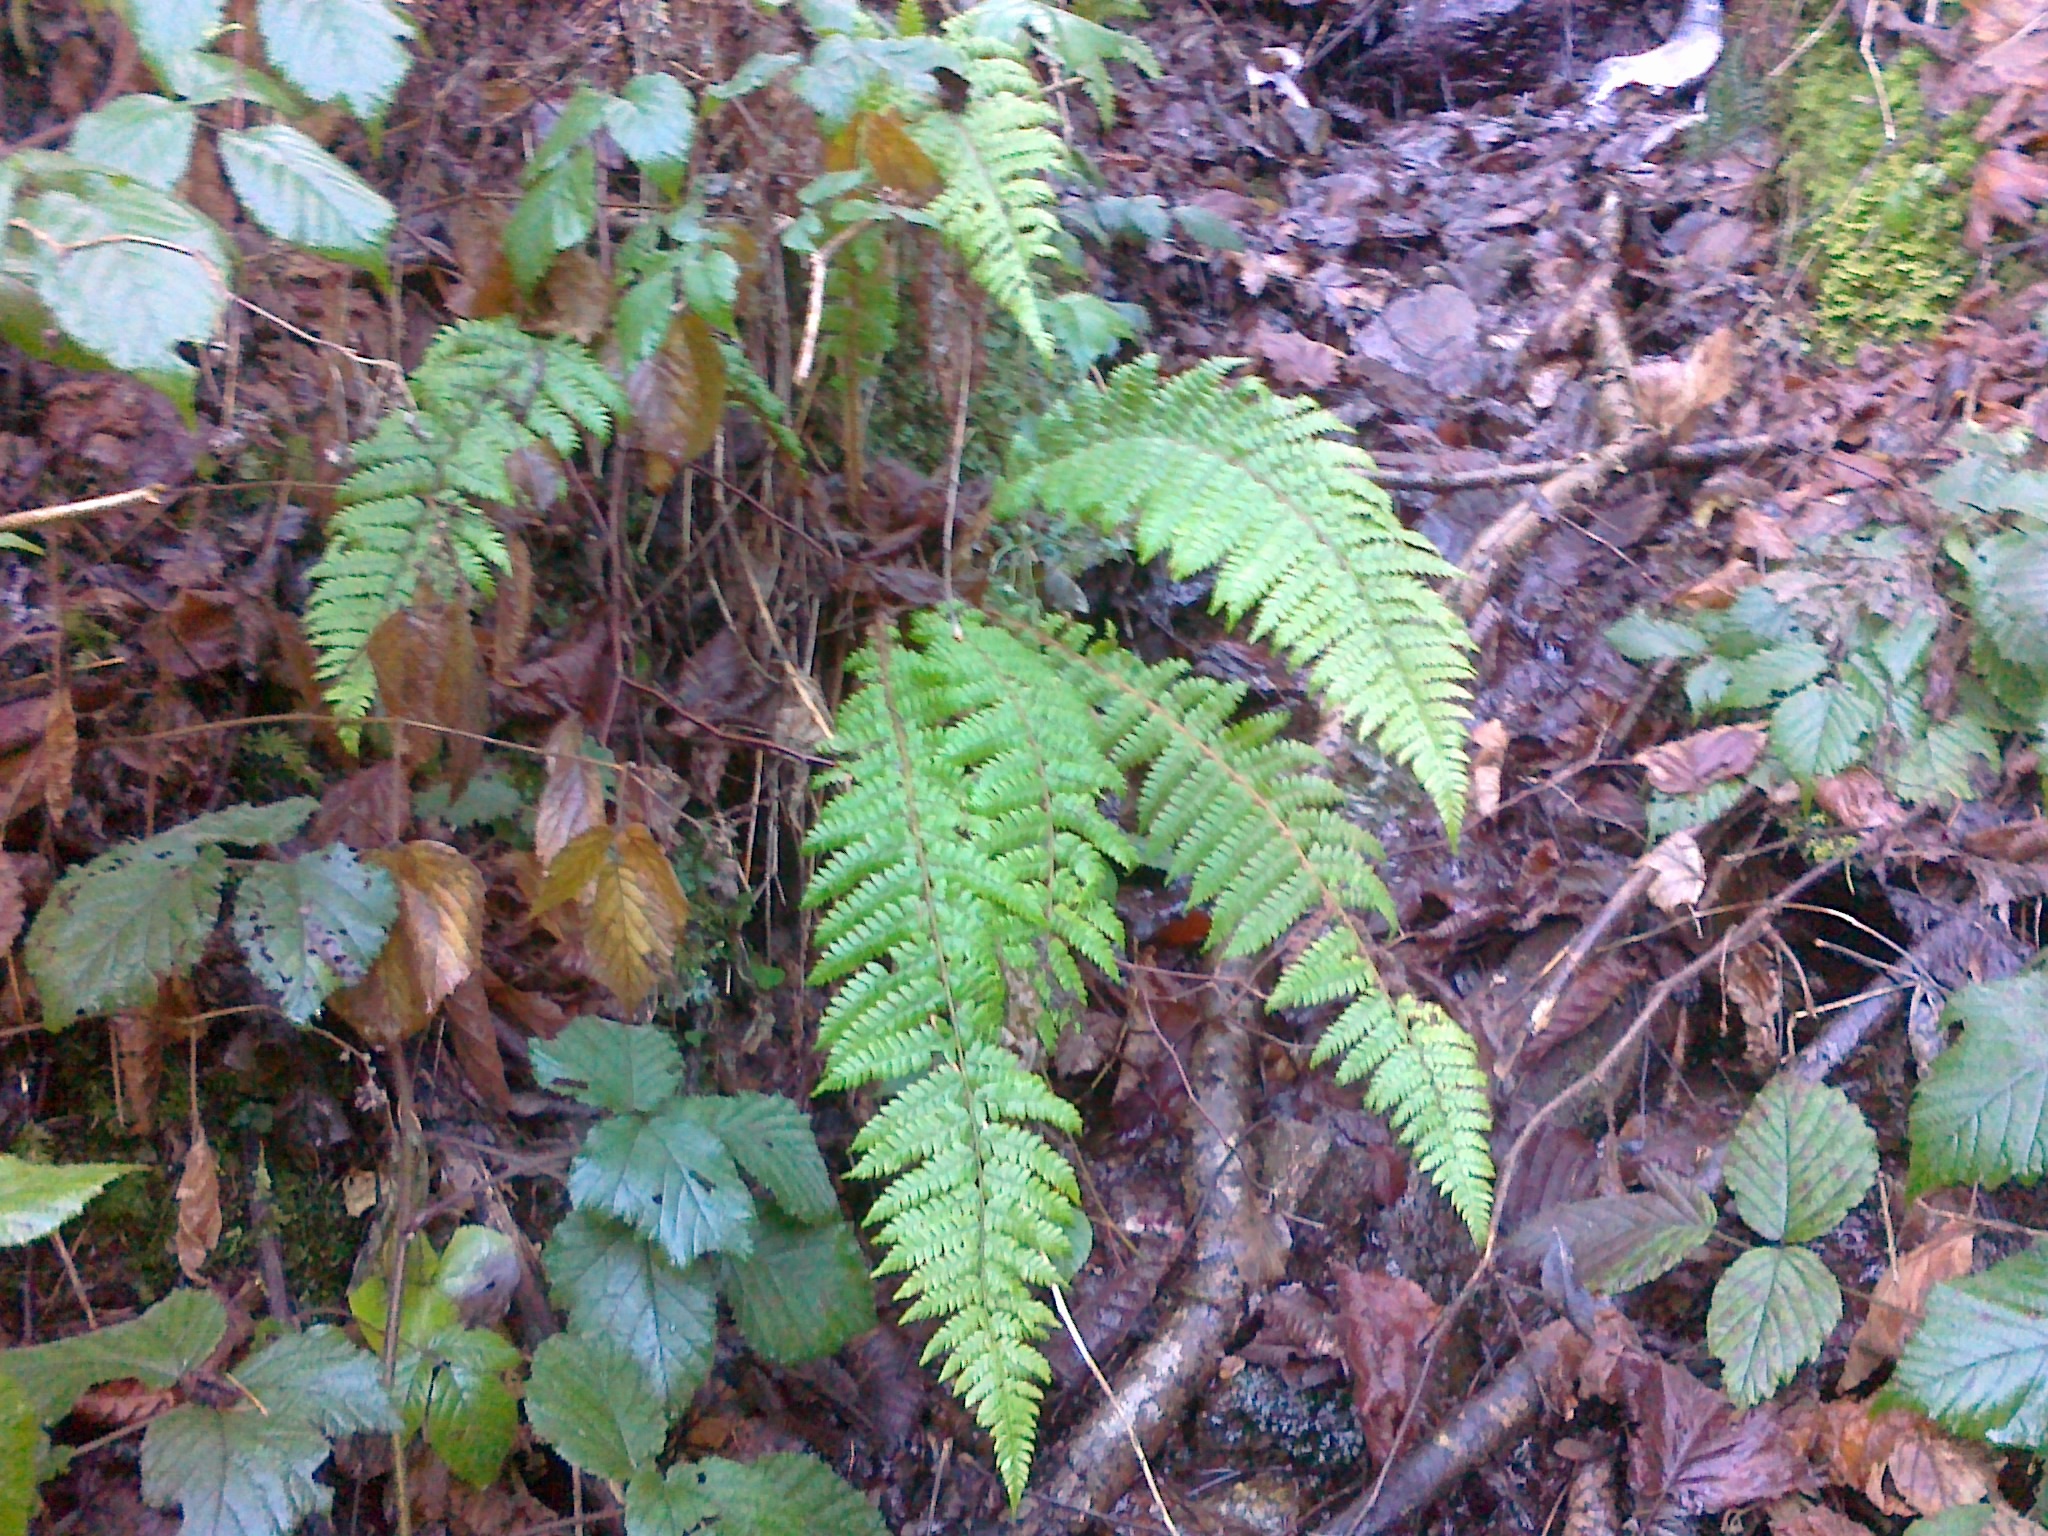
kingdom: Plantae
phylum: Tracheophyta
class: Polypodiopsida
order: Polypodiales
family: Dryopteridaceae
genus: Polystichum
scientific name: Polystichum braunii
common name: Braun's holly fern
